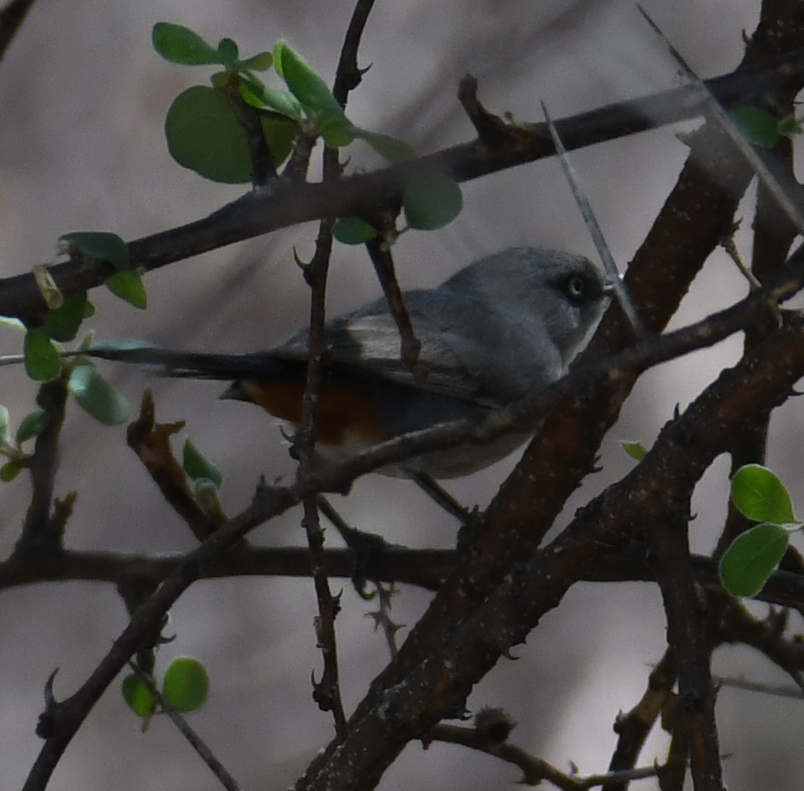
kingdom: Animalia
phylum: Chordata
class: Aves
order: Passeriformes
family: Sylviidae
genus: Curruca
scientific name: Curruca subcoerulea
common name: Chestnut-vented warbler
